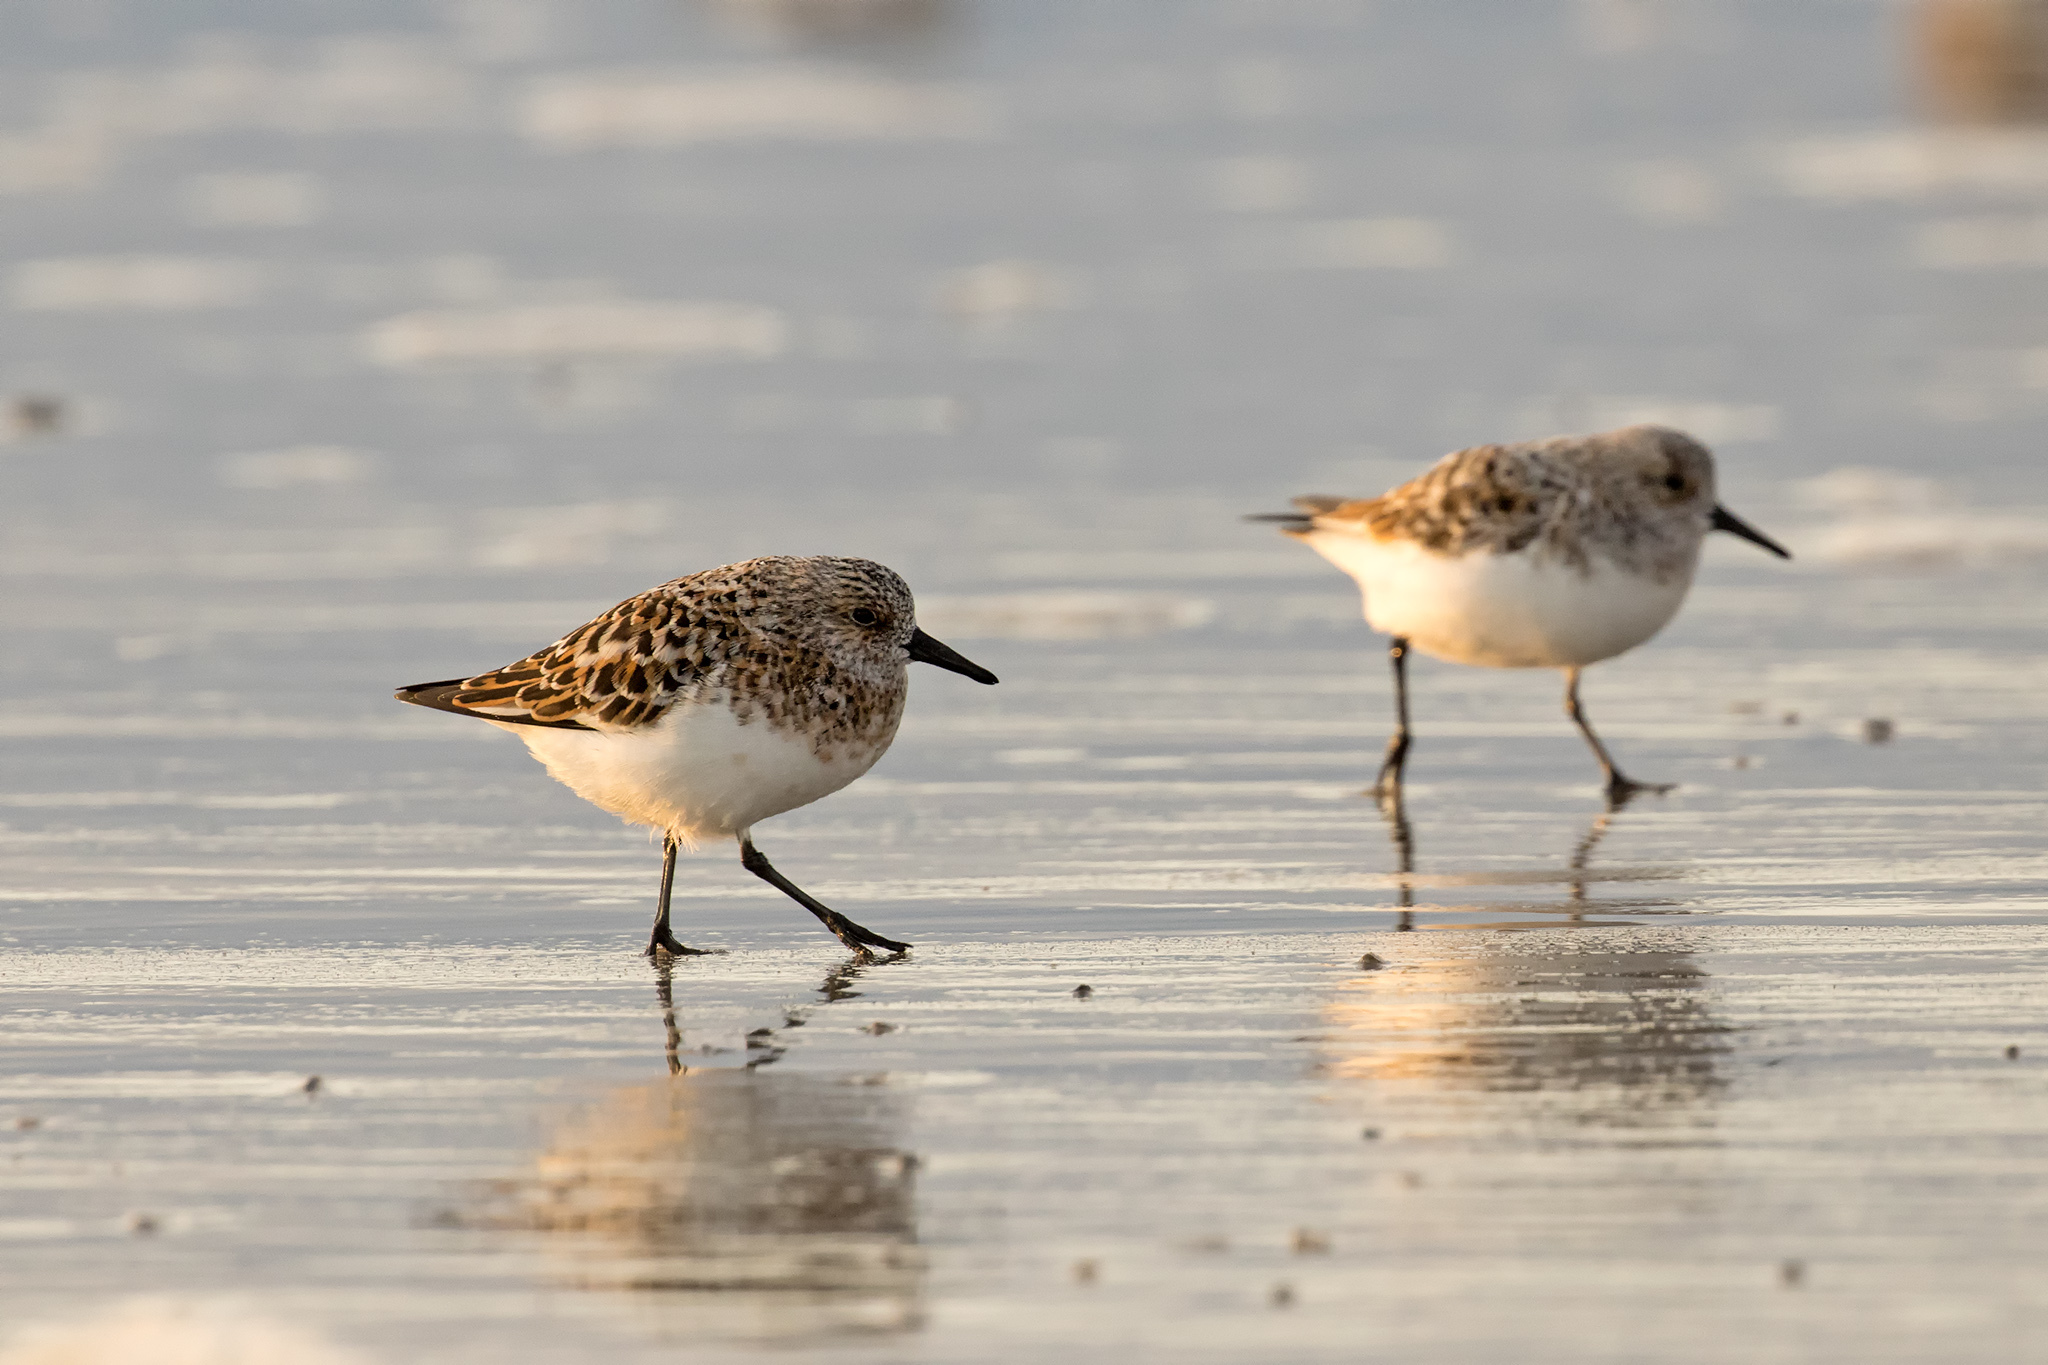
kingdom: Animalia
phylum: Chordata
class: Aves
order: Charadriiformes
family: Scolopacidae
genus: Calidris
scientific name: Calidris alba
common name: Sanderling
